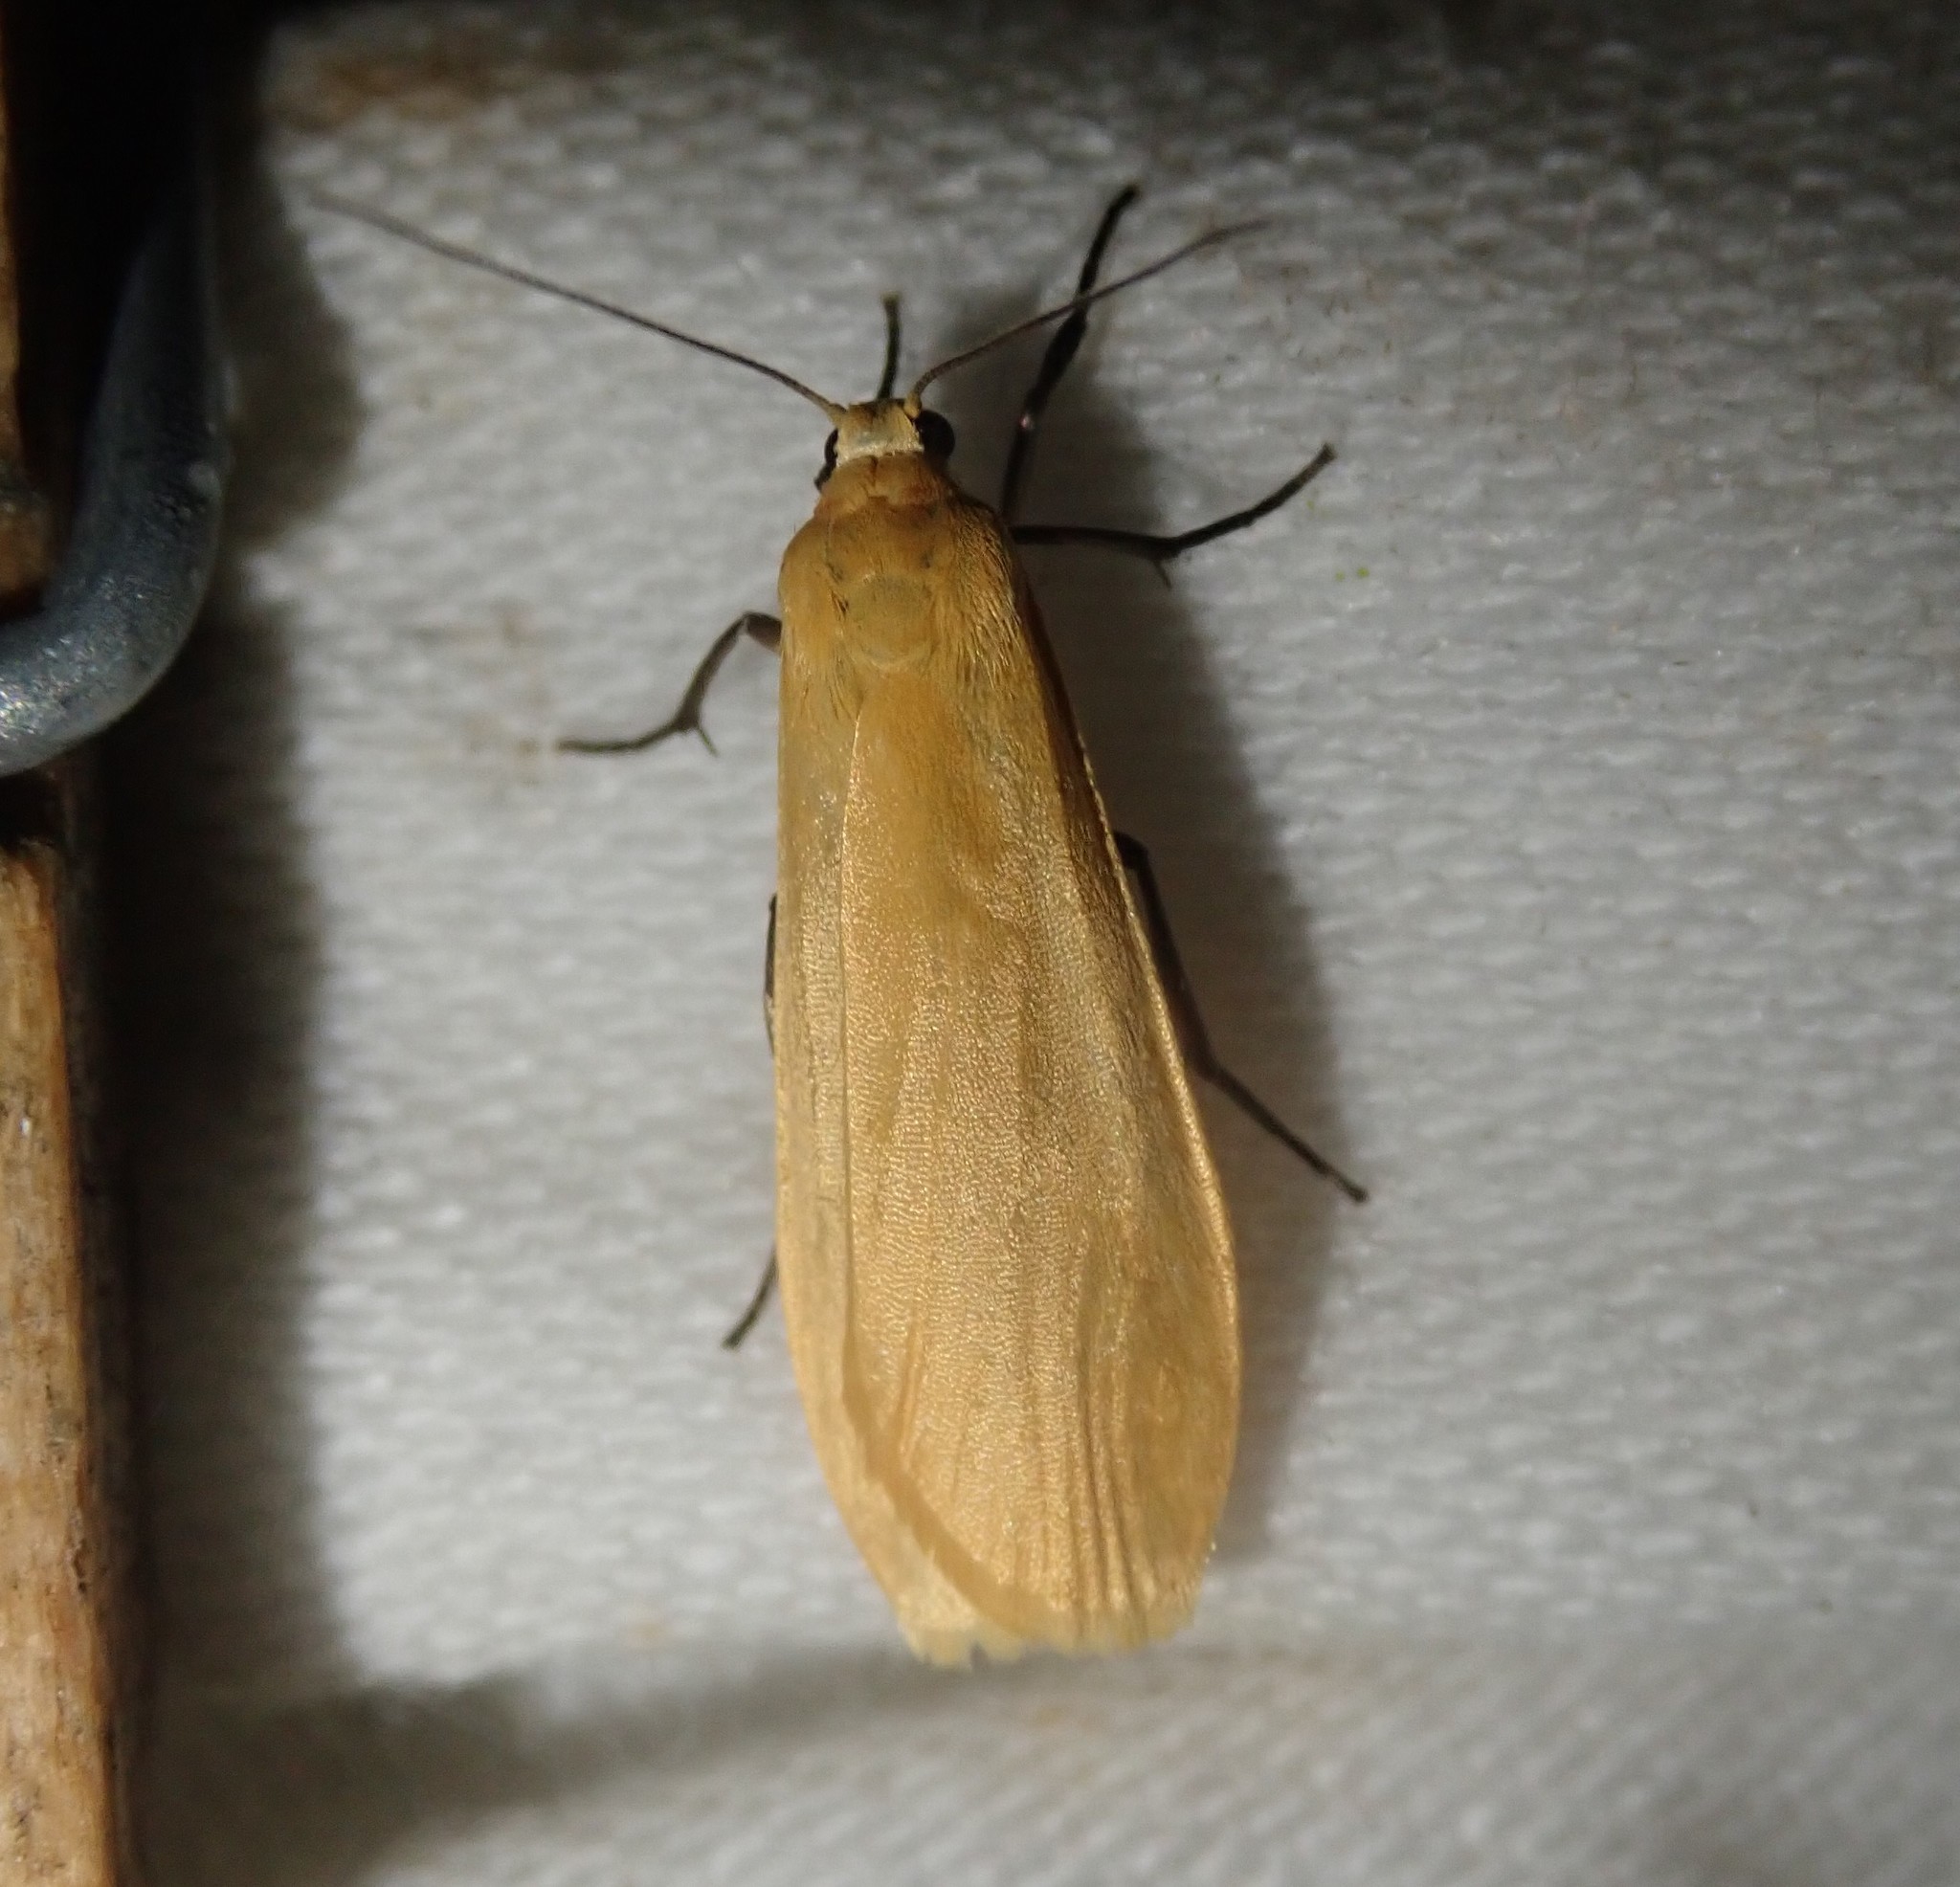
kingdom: Animalia
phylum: Arthropoda
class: Insecta
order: Lepidoptera
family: Erebidae
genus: Wittia
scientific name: Wittia sororcula
